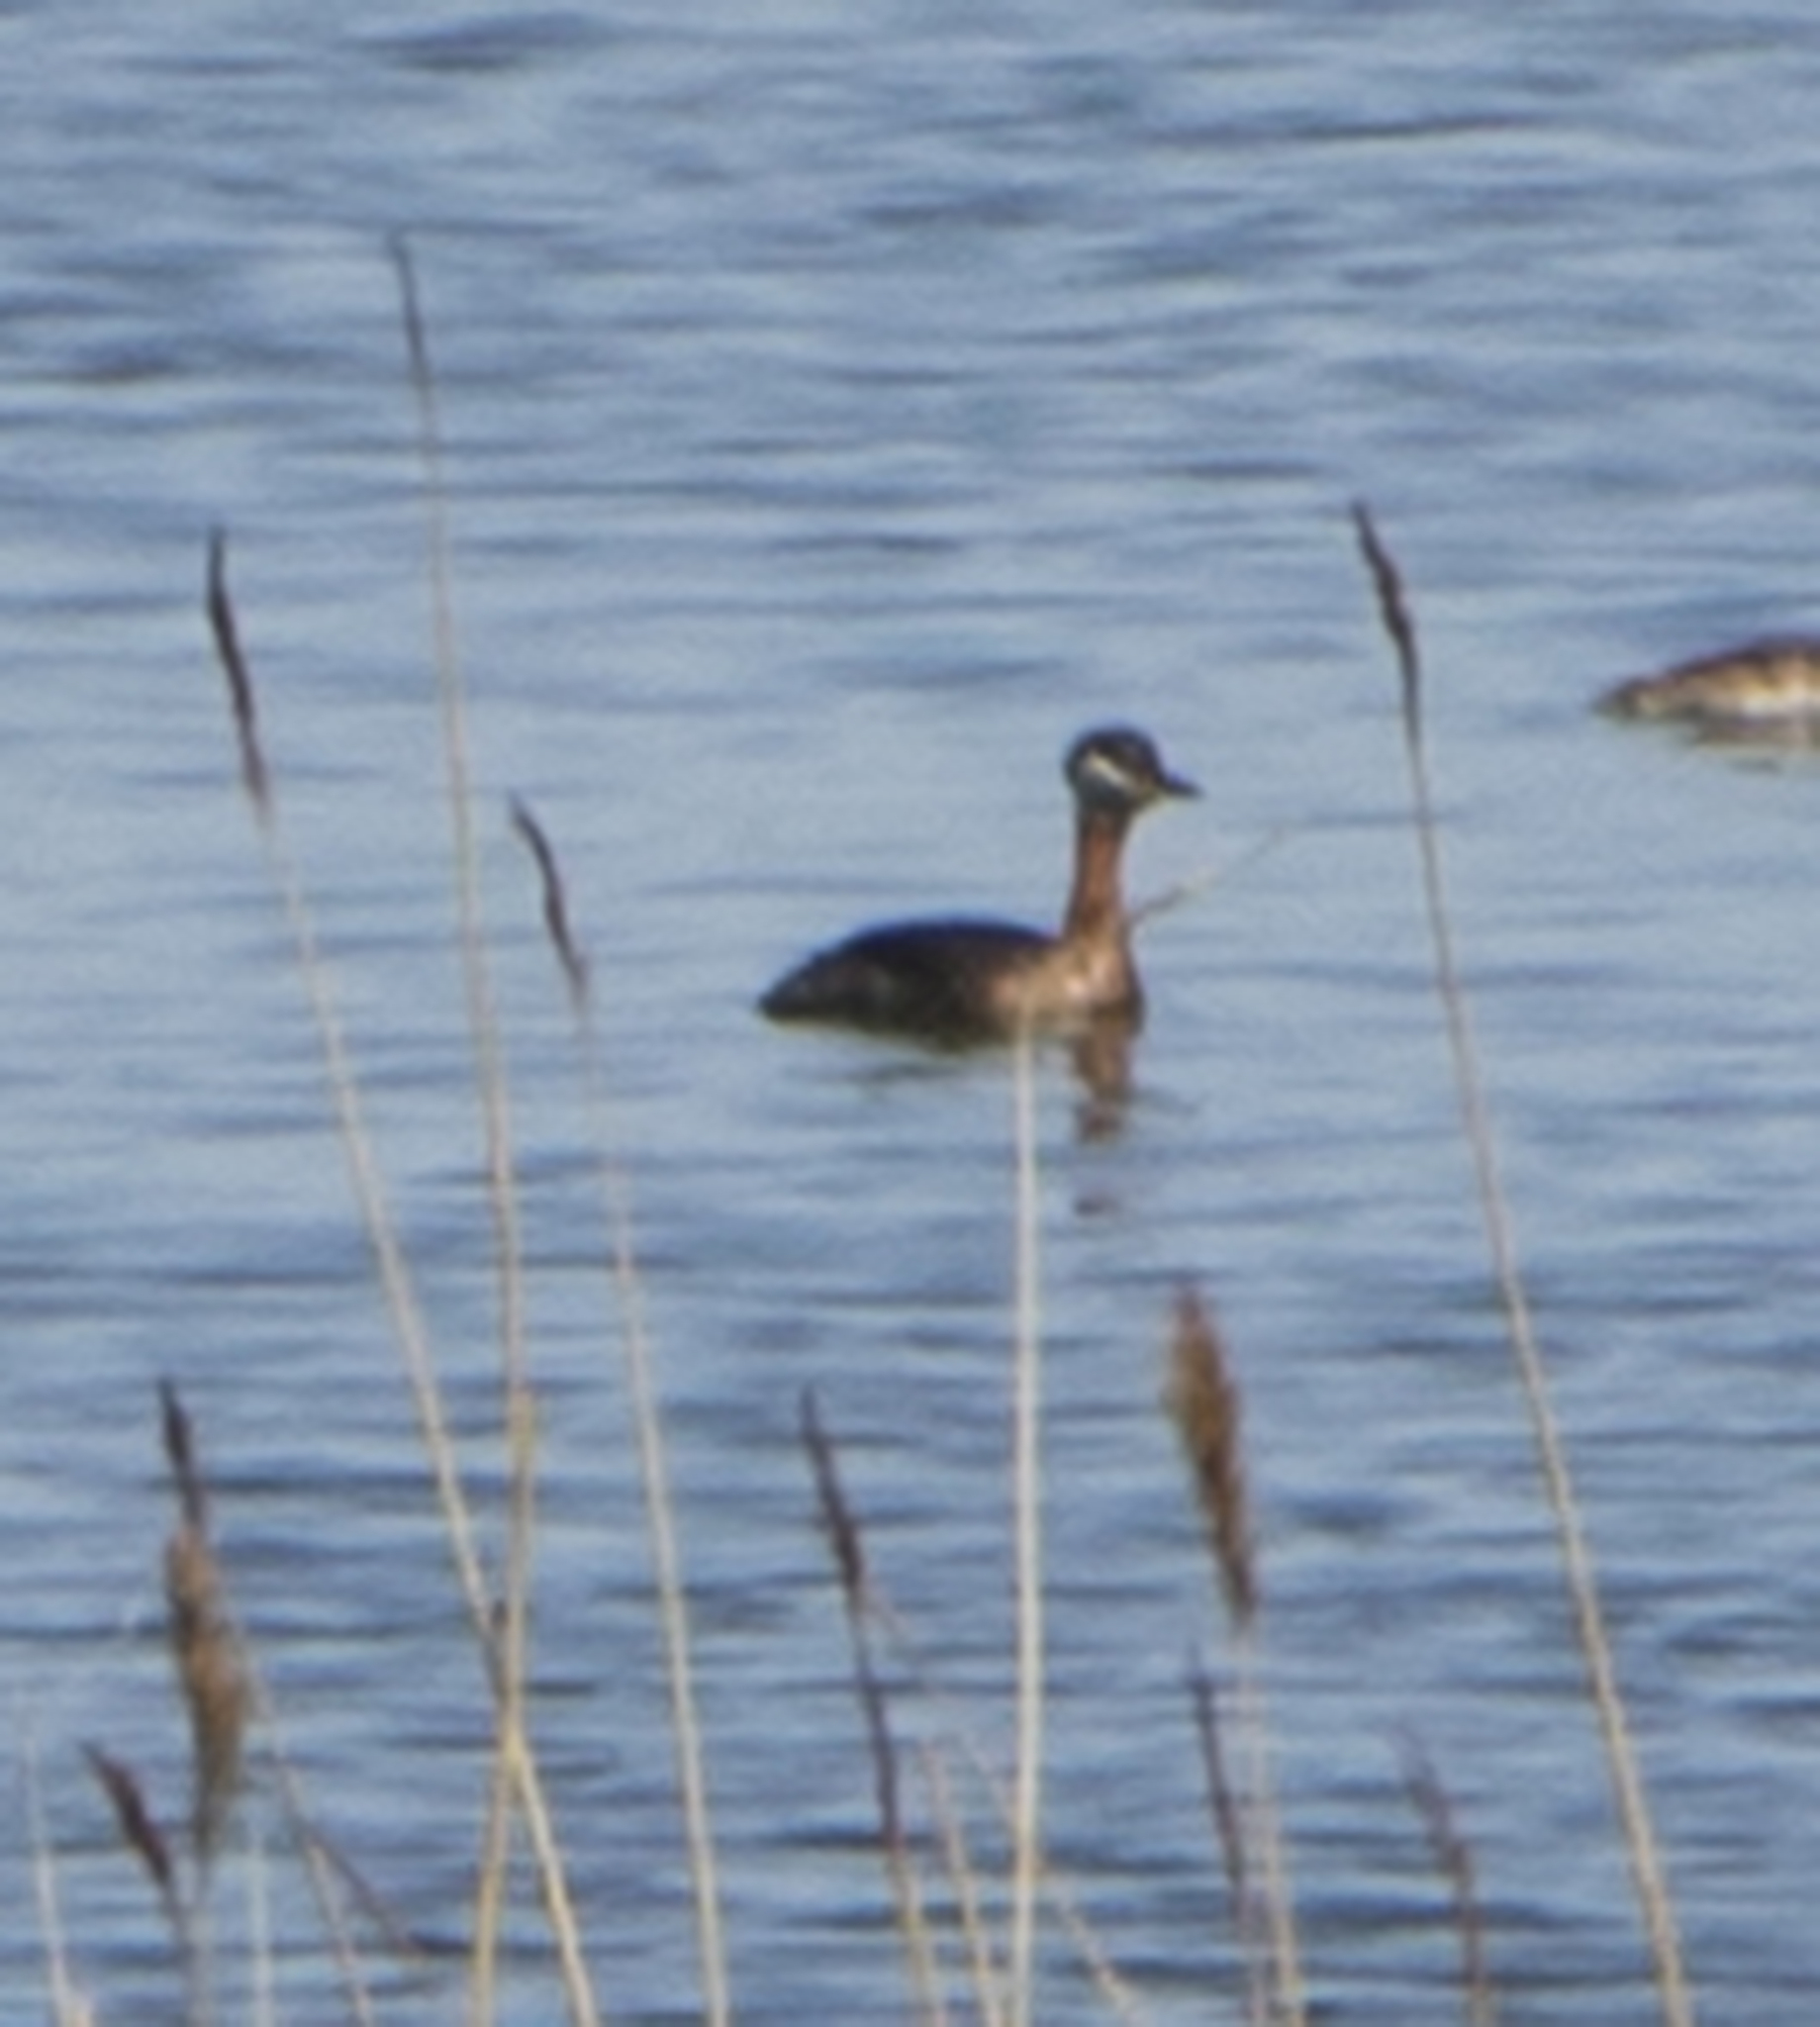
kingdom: Animalia
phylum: Chordata
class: Aves
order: Podicipediformes
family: Podicipedidae
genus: Podiceps
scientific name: Podiceps grisegena
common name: Red-necked grebe
